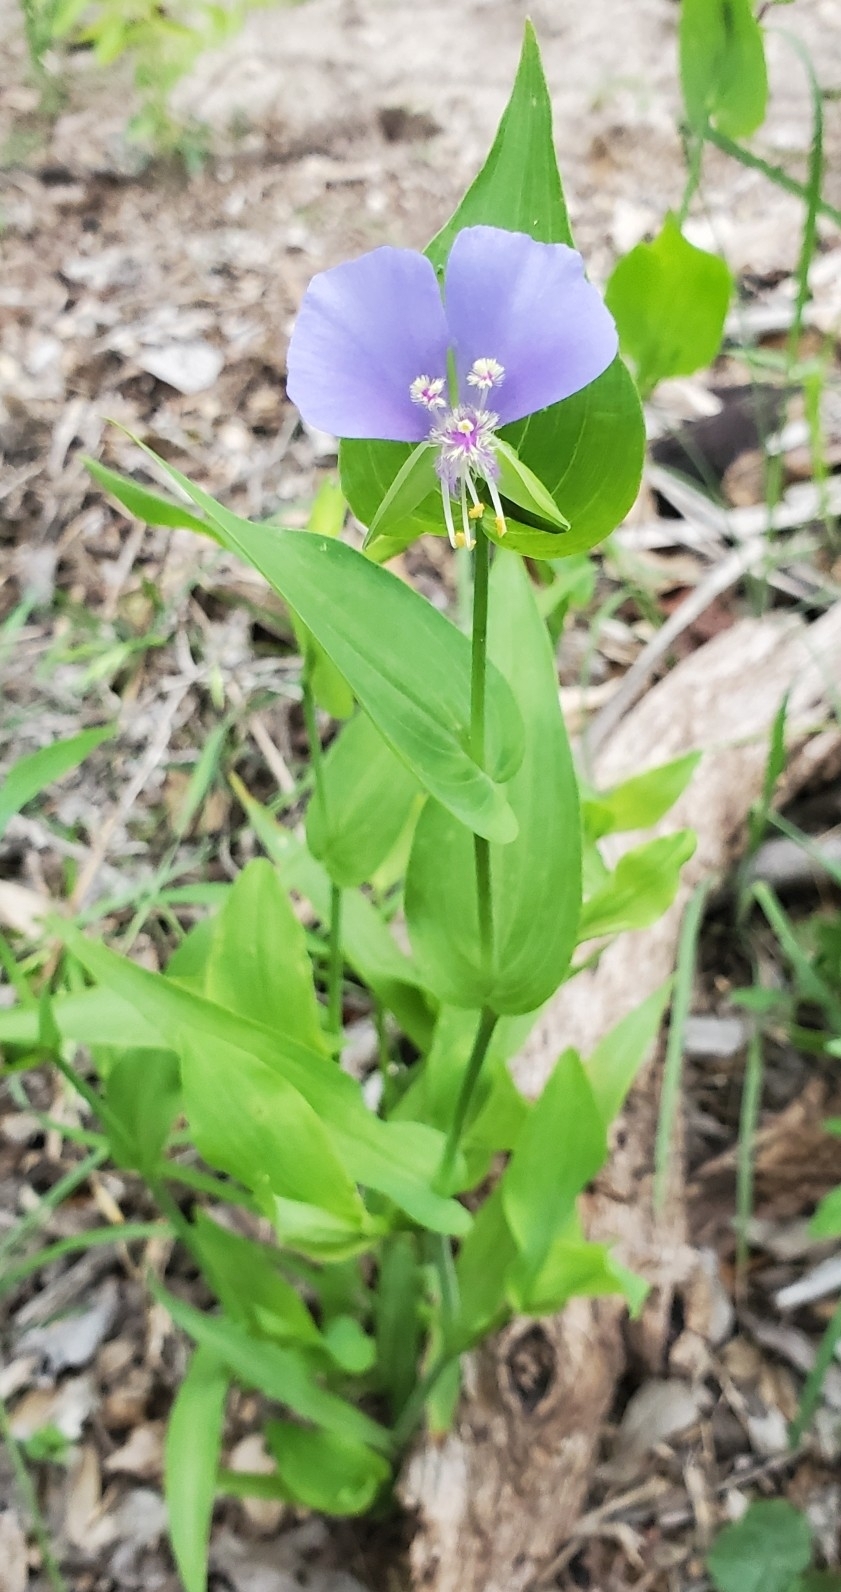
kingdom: Plantae
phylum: Tracheophyta
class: Liliopsida
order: Commelinales
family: Commelinaceae
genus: Tinantia
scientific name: Tinantia anomala
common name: False dayflower
